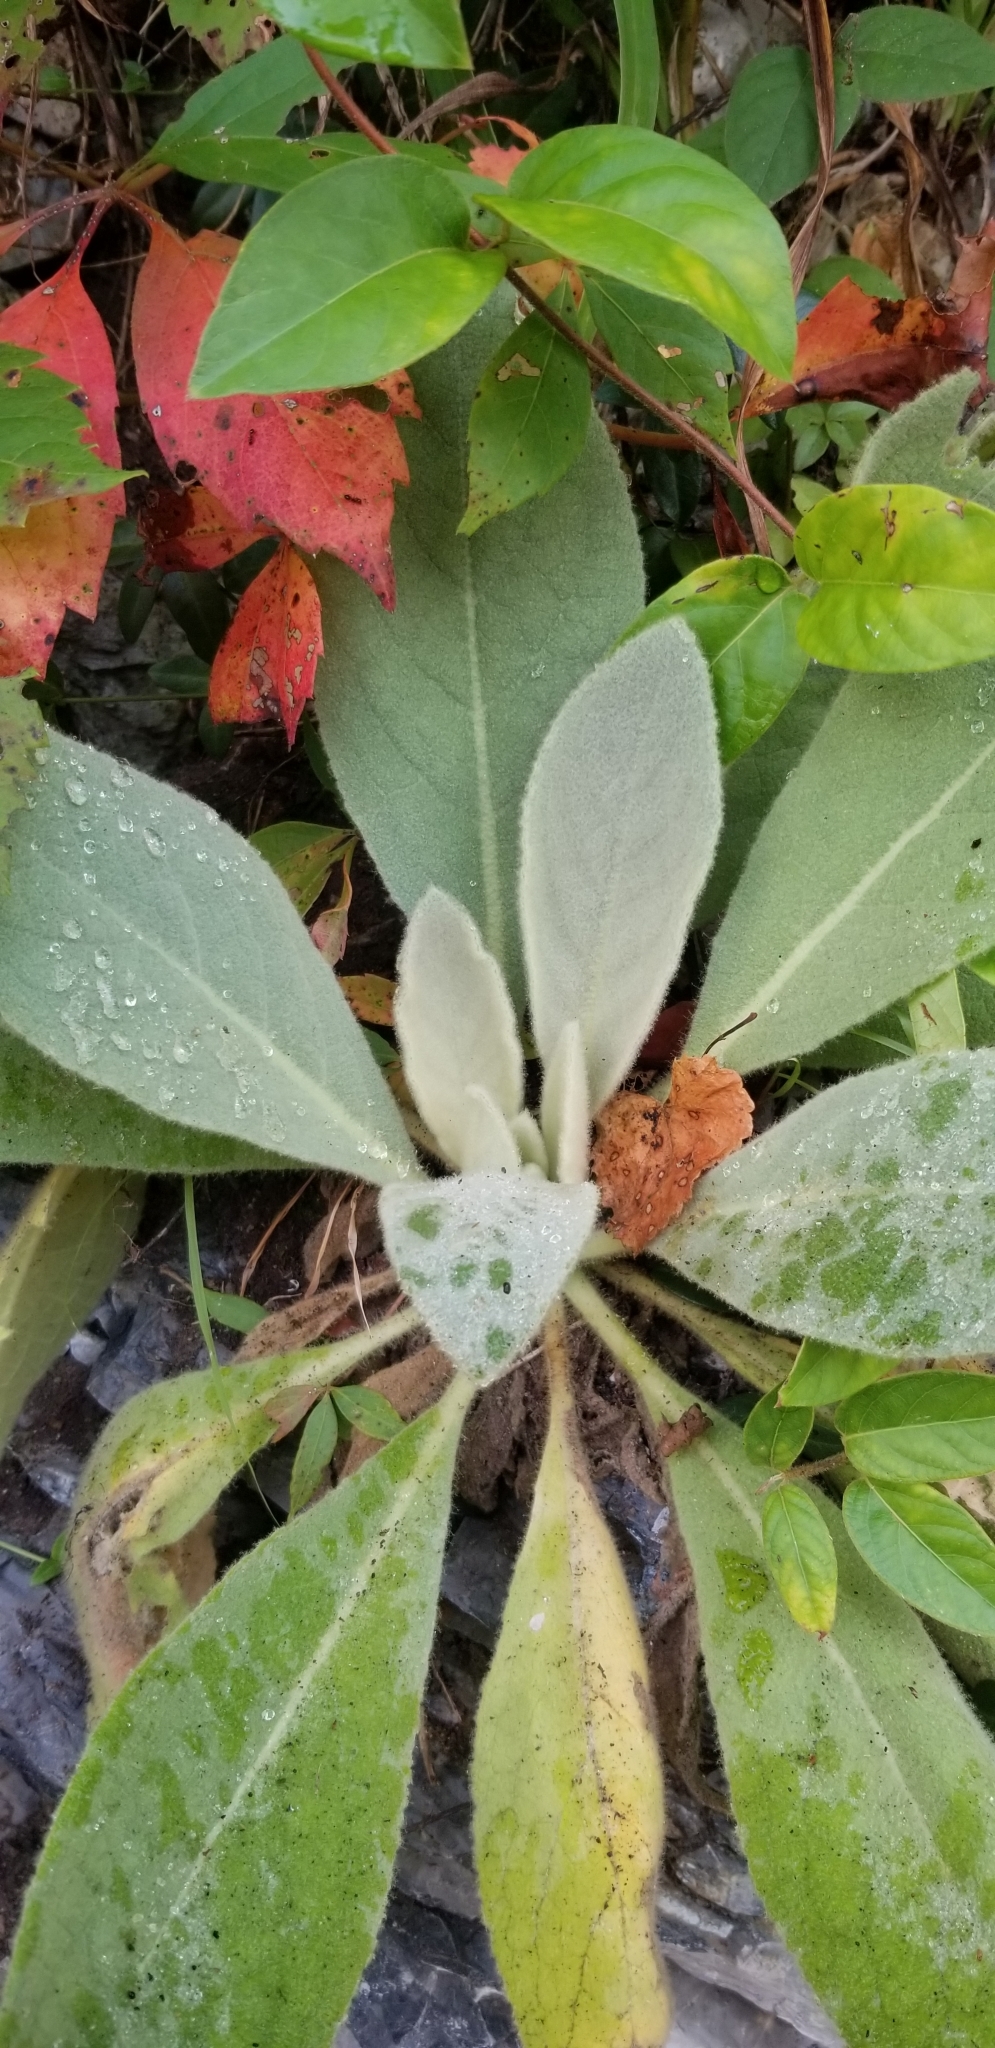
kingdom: Plantae
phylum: Tracheophyta
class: Magnoliopsida
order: Lamiales
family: Scrophulariaceae
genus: Verbascum
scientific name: Verbascum thapsus
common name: Common mullein
